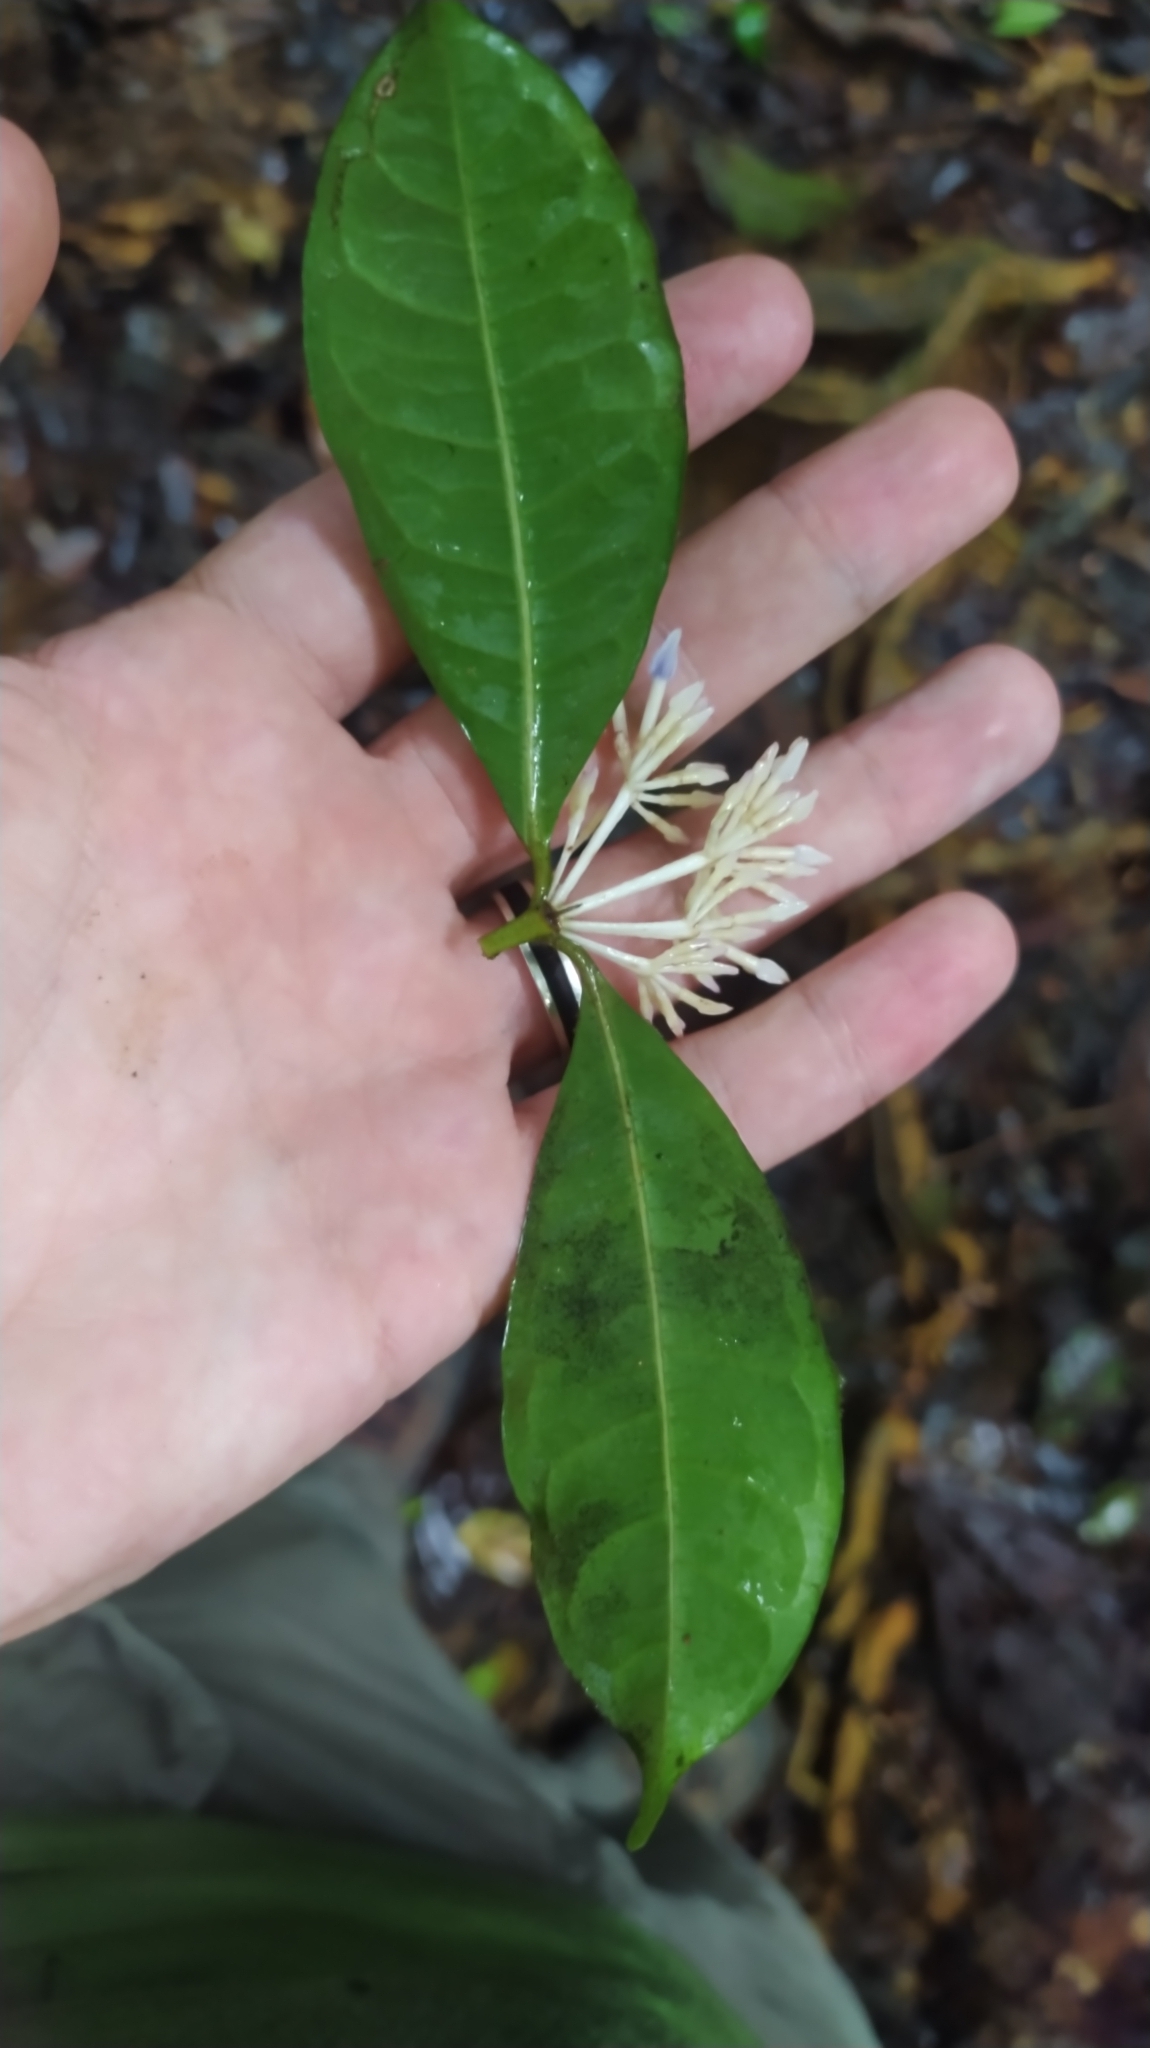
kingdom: Plantae
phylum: Tracheophyta
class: Magnoliopsida
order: Gentianales
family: Rubiaceae
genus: Faramea
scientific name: Faramea corymbosa
